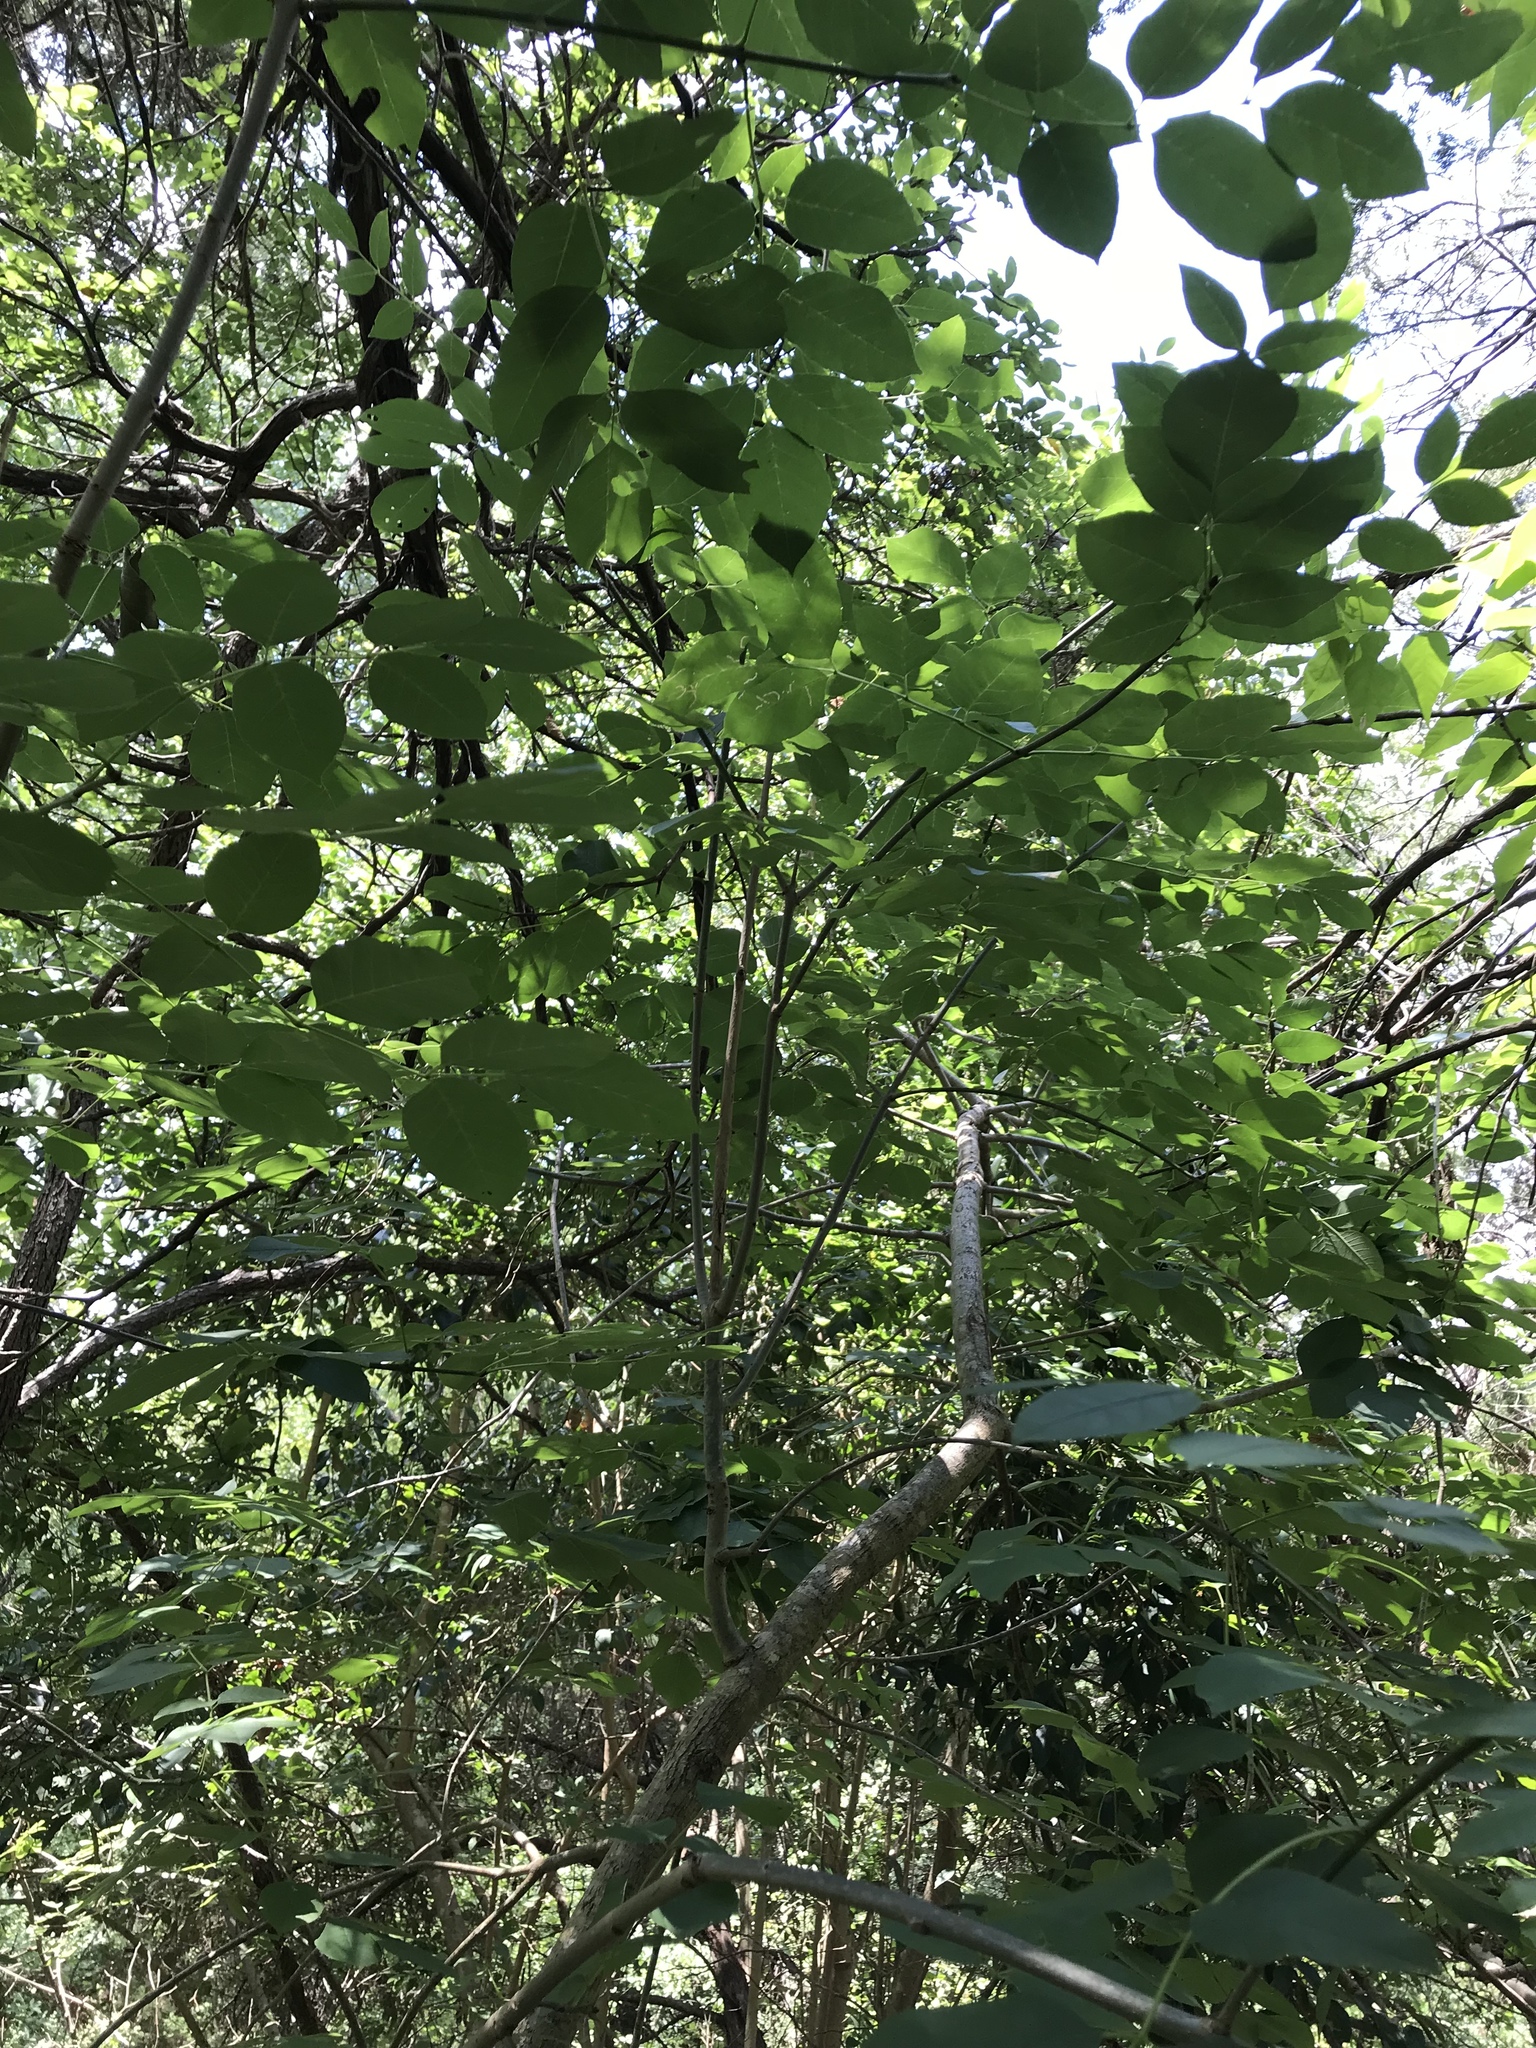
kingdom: Plantae
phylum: Tracheophyta
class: Magnoliopsida
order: Lamiales
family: Oleaceae
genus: Fraxinus
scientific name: Fraxinus albicans
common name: Texas ash
